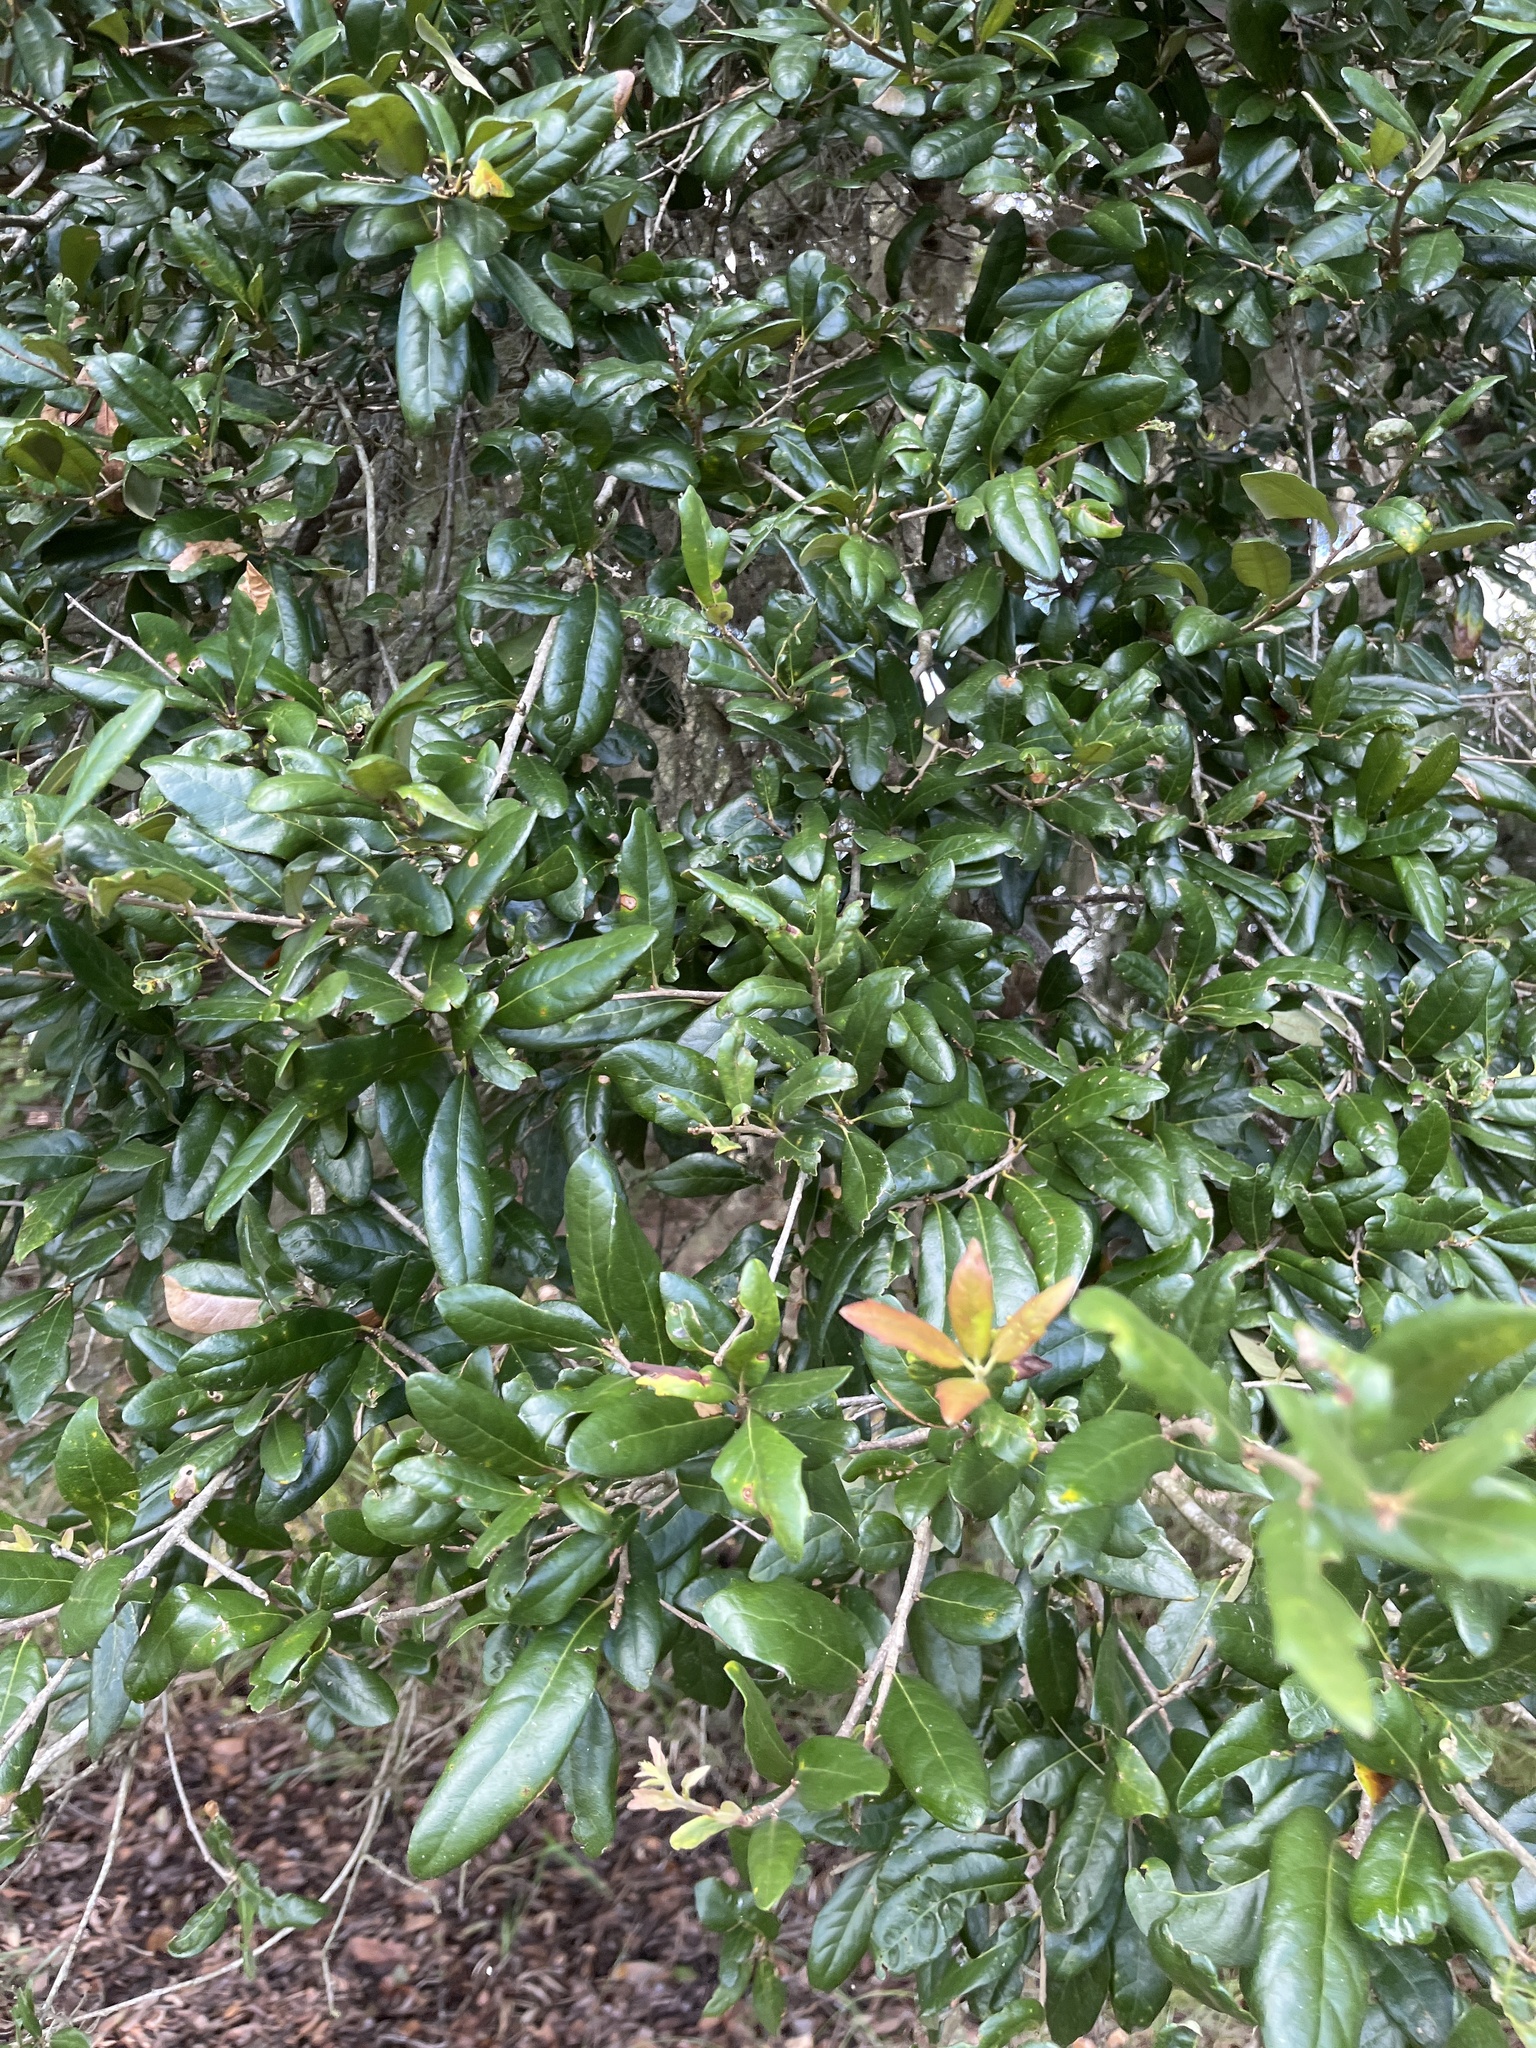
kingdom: Plantae
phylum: Tracheophyta
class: Magnoliopsida
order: Fagales
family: Fagaceae
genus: Quercus
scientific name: Quercus virginiana
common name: Southern live oak
